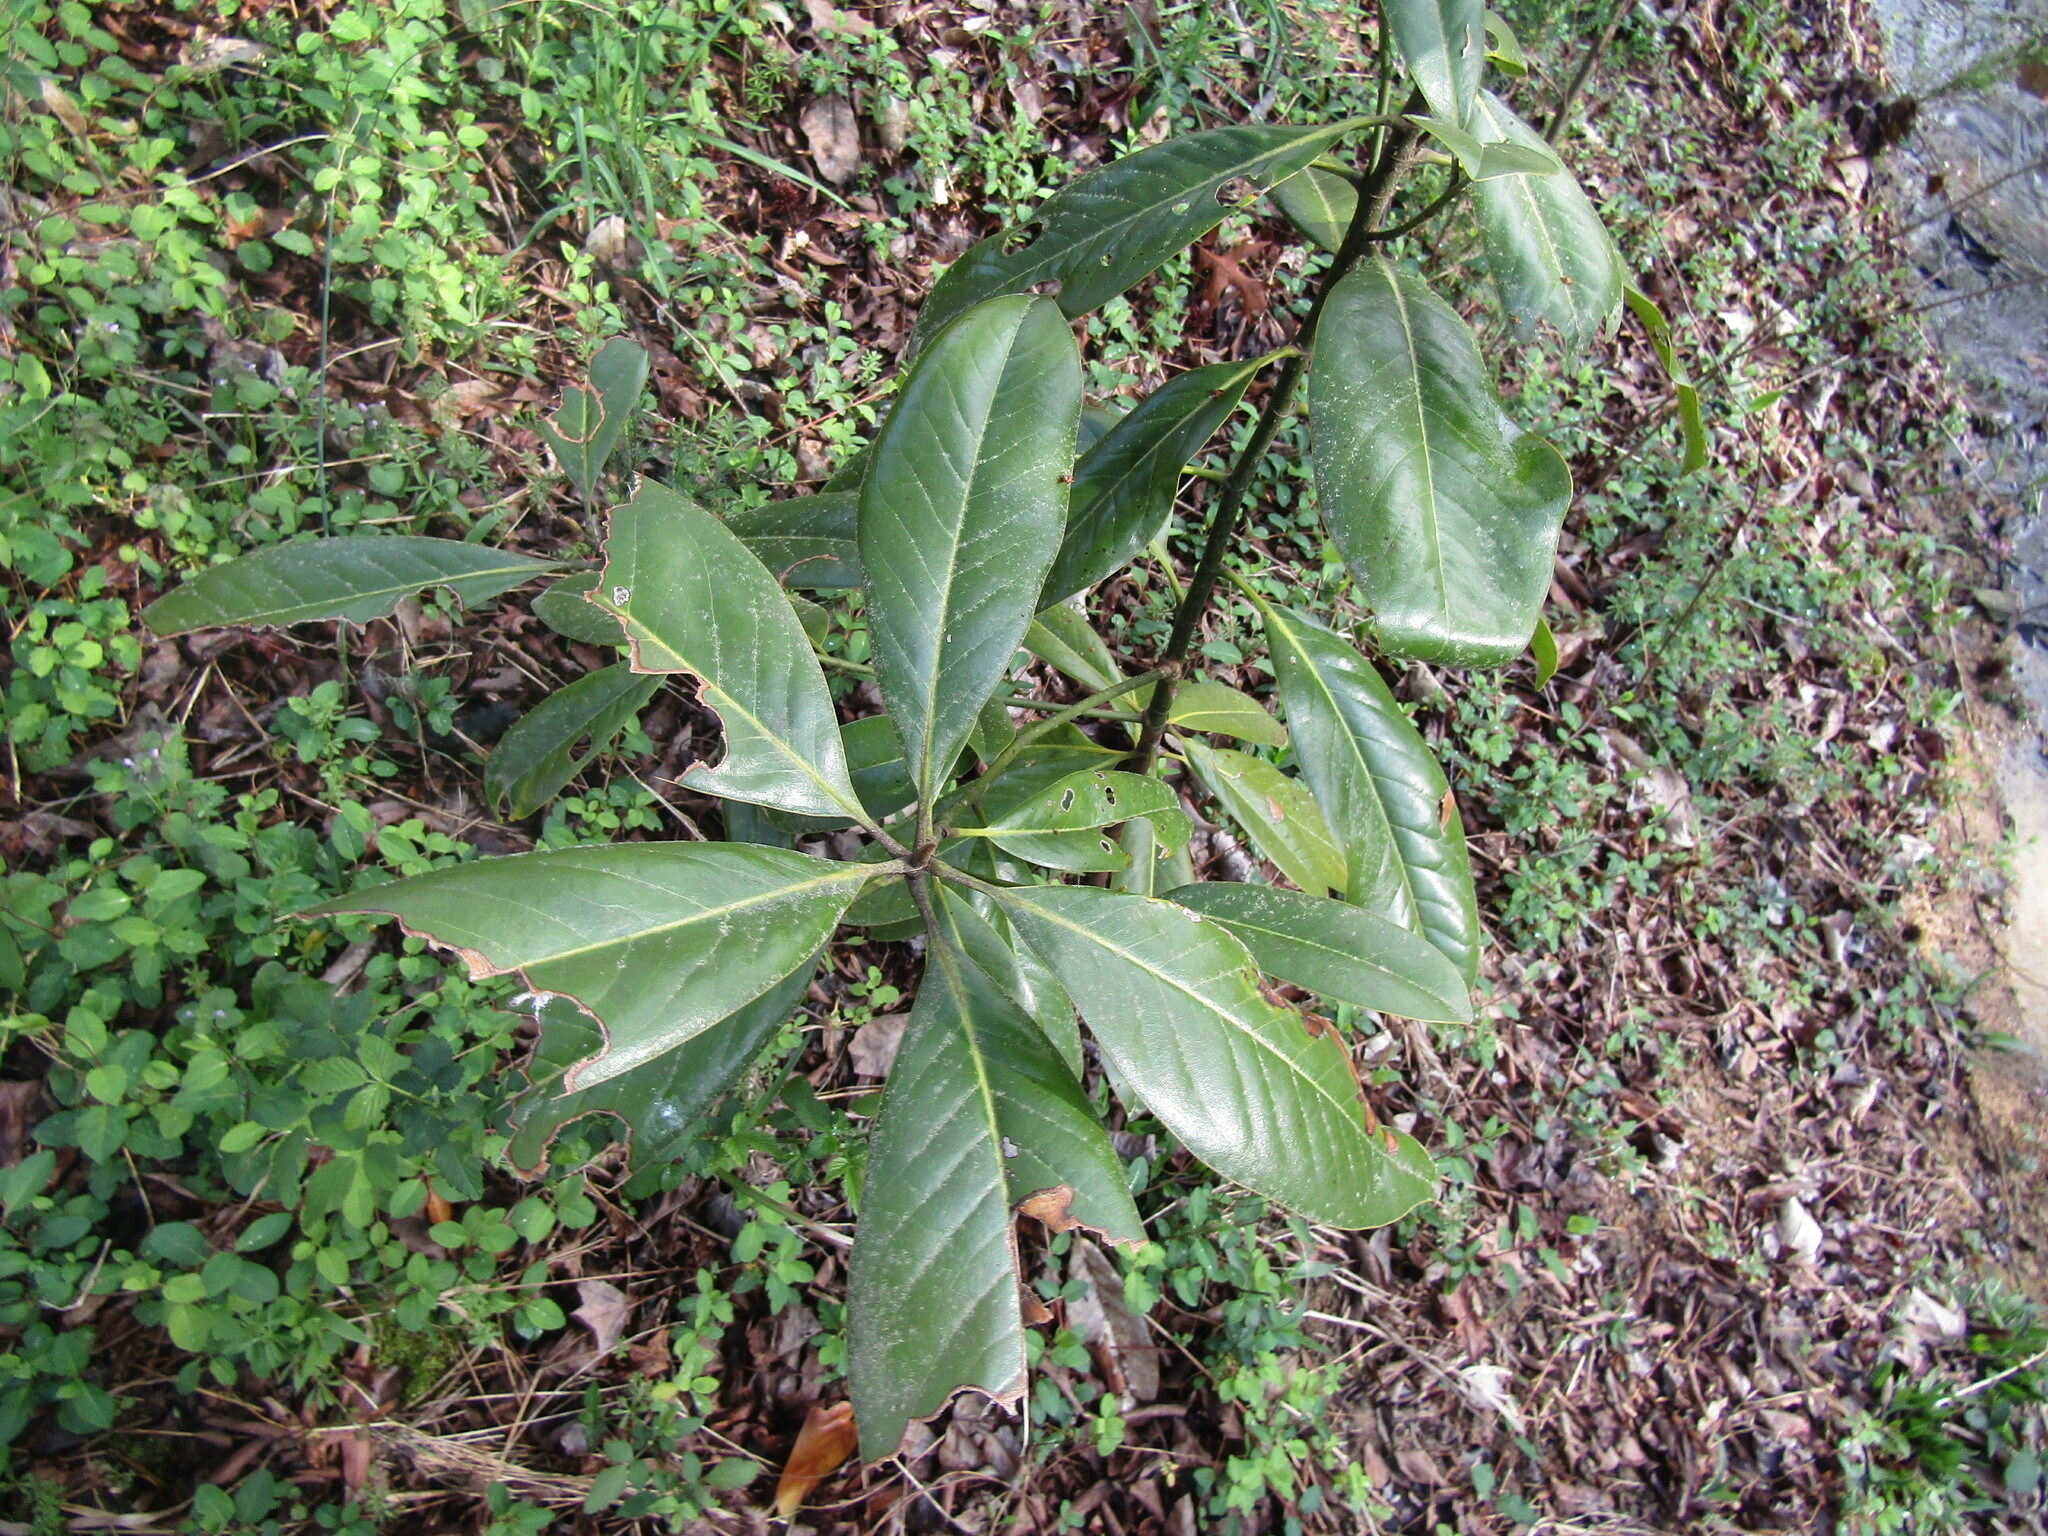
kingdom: Plantae
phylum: Tracheophyta
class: Magnoliopsida
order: Magnoliales
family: Magnoliaceae
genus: Magnolia
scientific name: Magnolia grandiflora
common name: Southern magnolia
